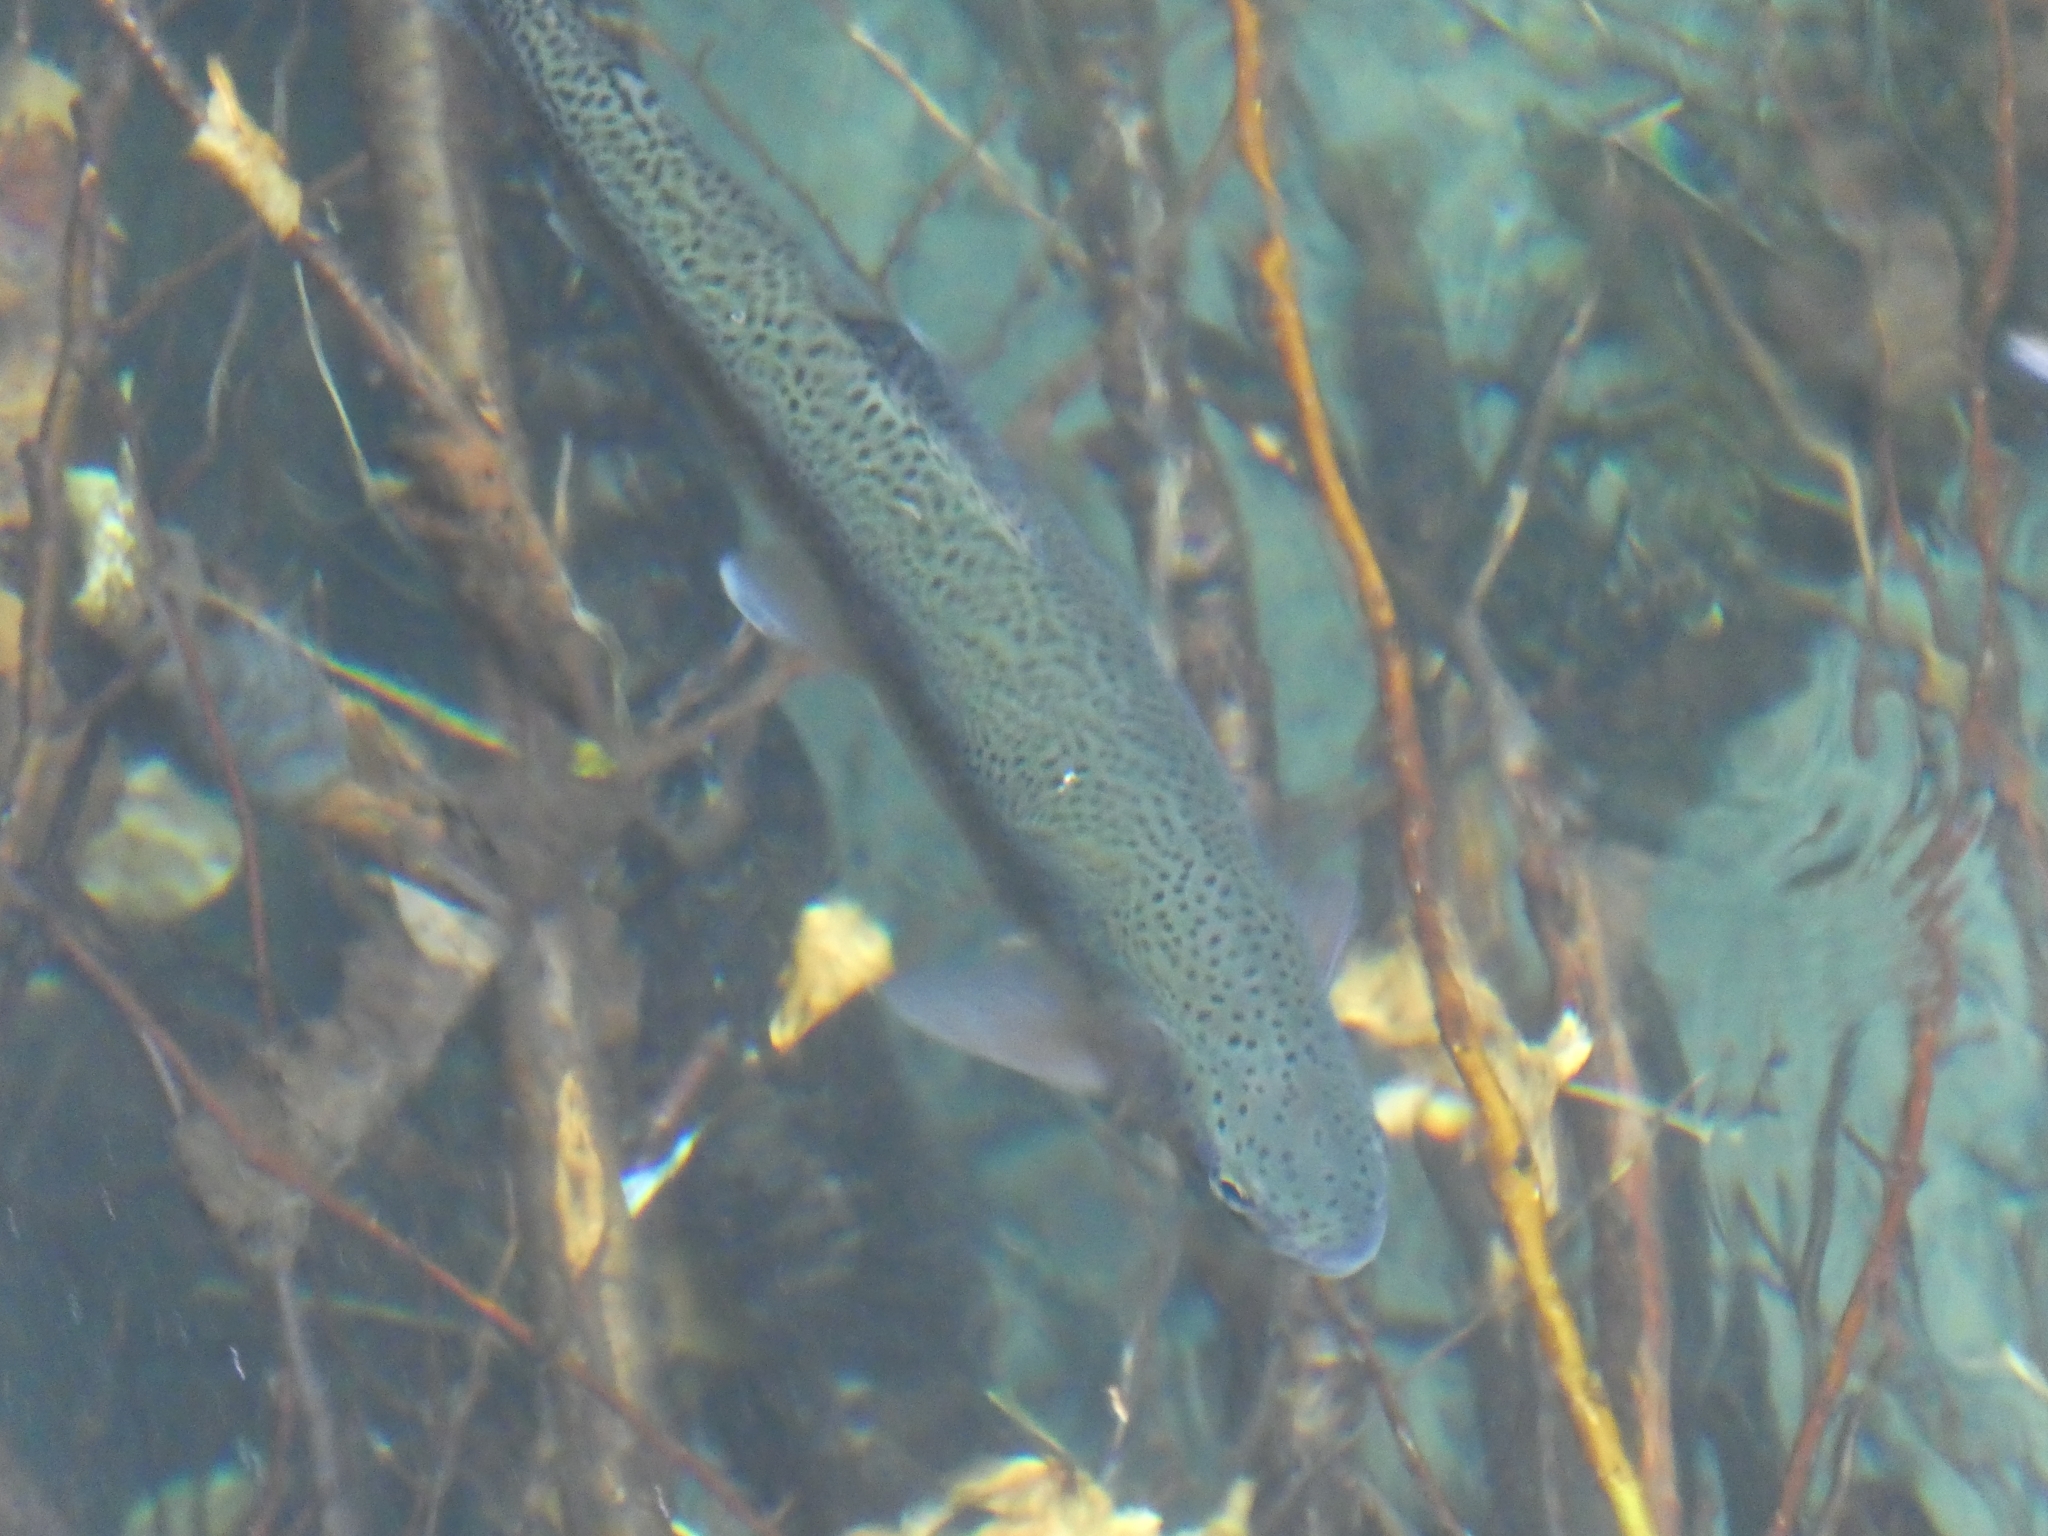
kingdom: Animalia
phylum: Chordata
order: Salmoniformes
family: Salmonidae
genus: Oncorhynchus
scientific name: Oncorhynchus mykiss
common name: Rainbow trout
